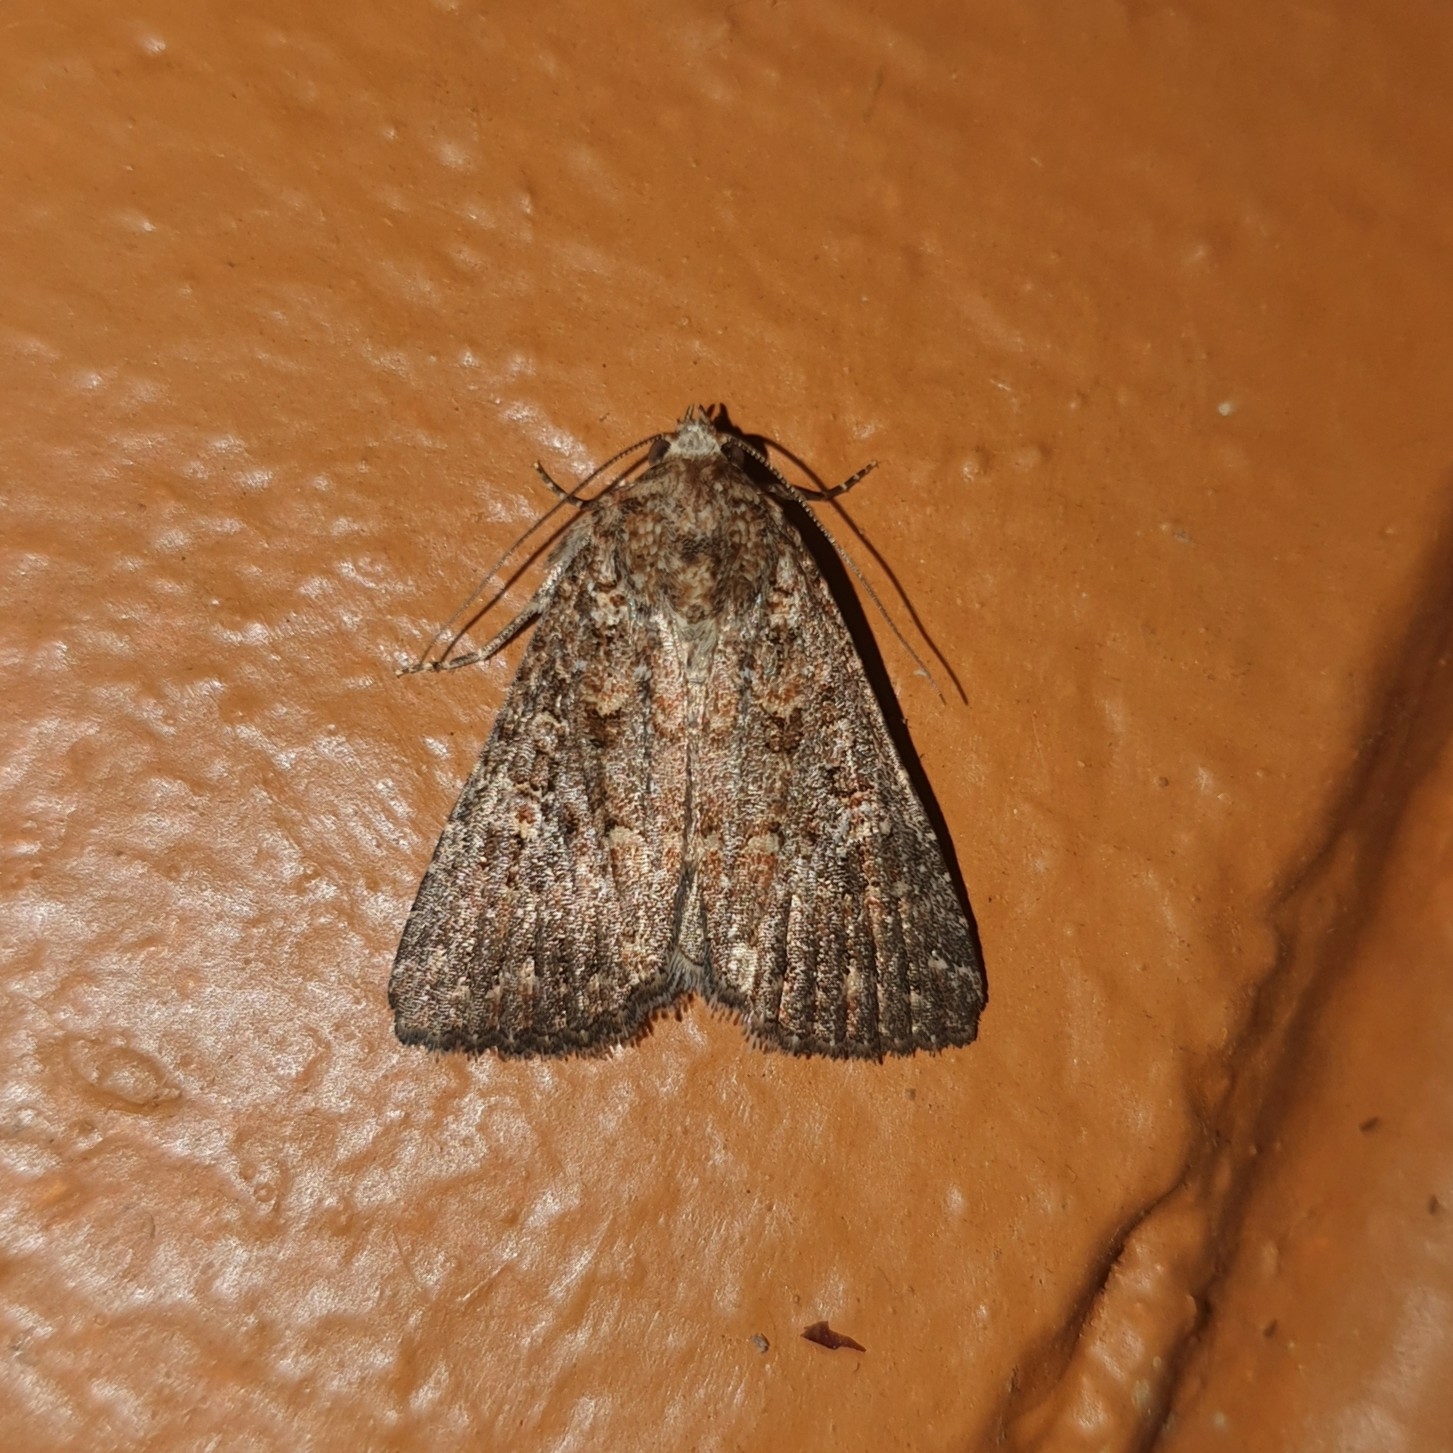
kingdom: Animalia
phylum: Arthropoda
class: Insecta
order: Lepidoptera
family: Noctuidae
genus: Hypoperigea
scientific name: Hypoperigea tonsa
